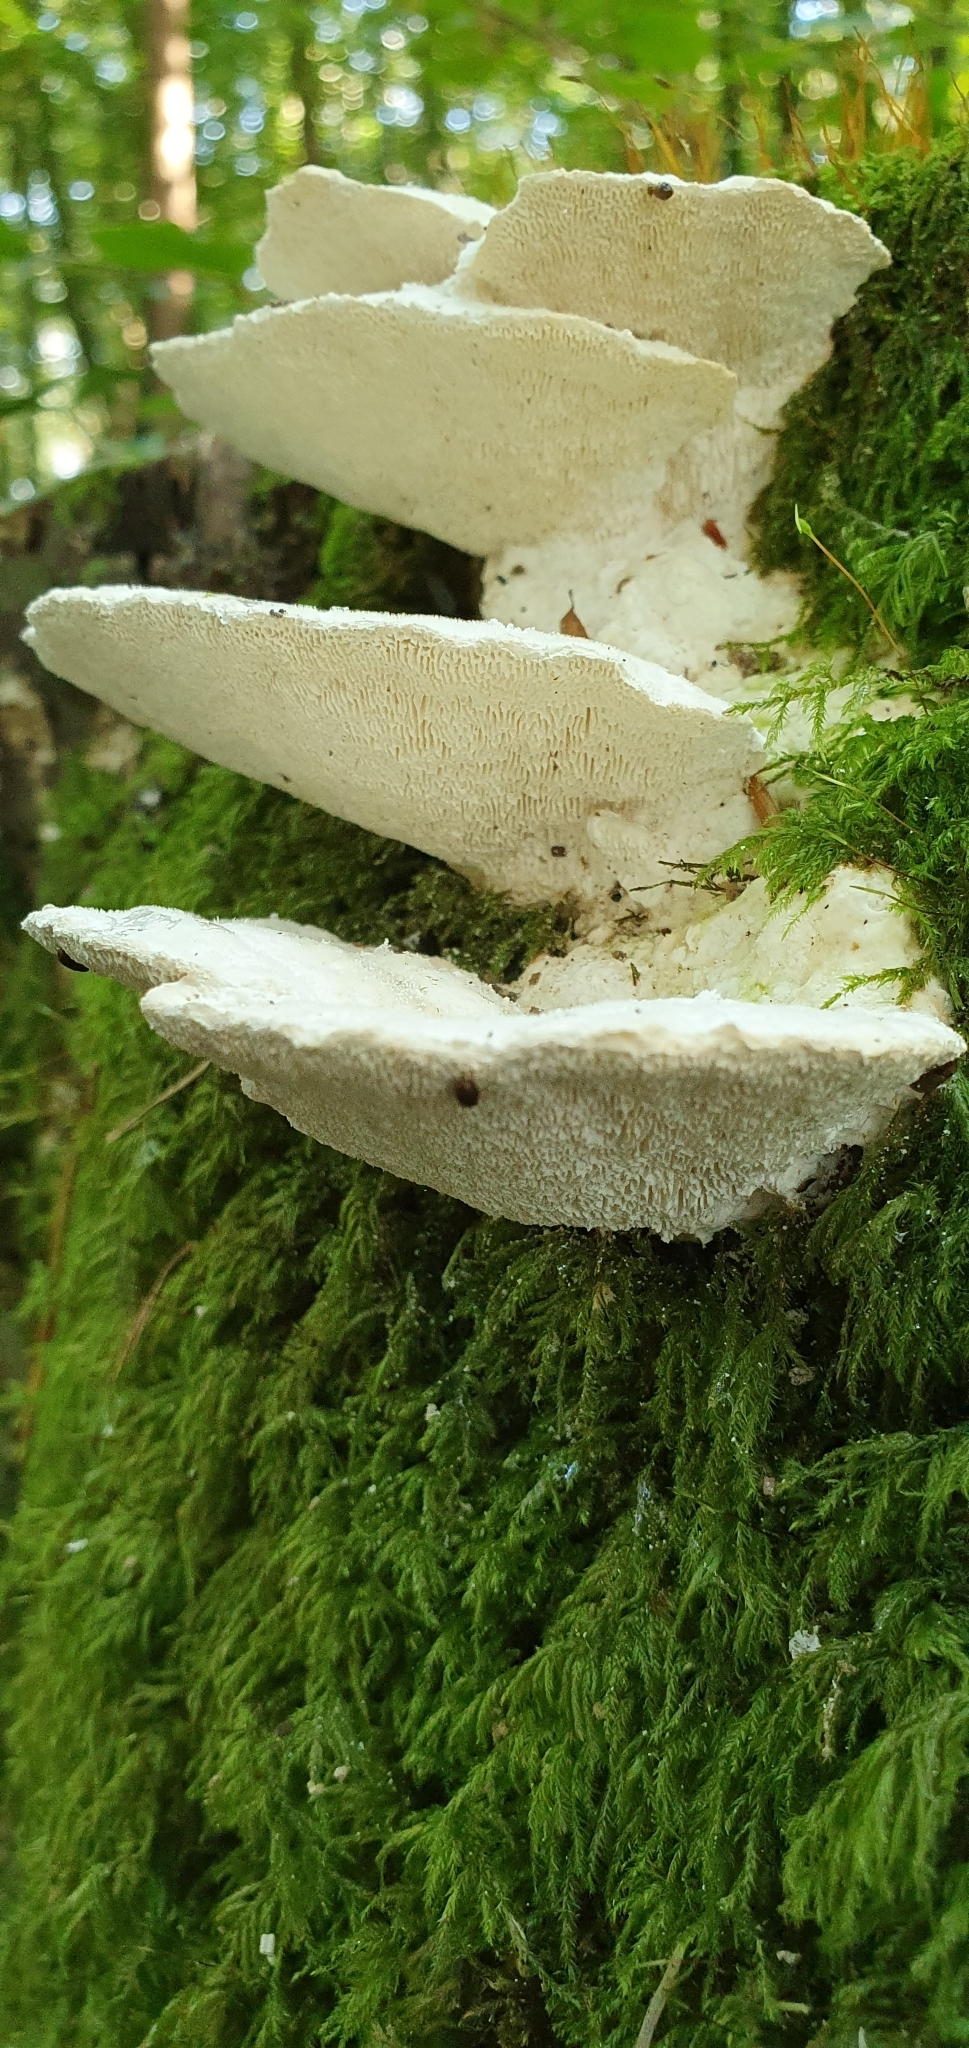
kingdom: Fungi
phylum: Basidiomycota
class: Agaricomycetes
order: Polyporales
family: Polyporaceae
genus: Trametes
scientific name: Trametes gibbosa
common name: Lumpy bracket
